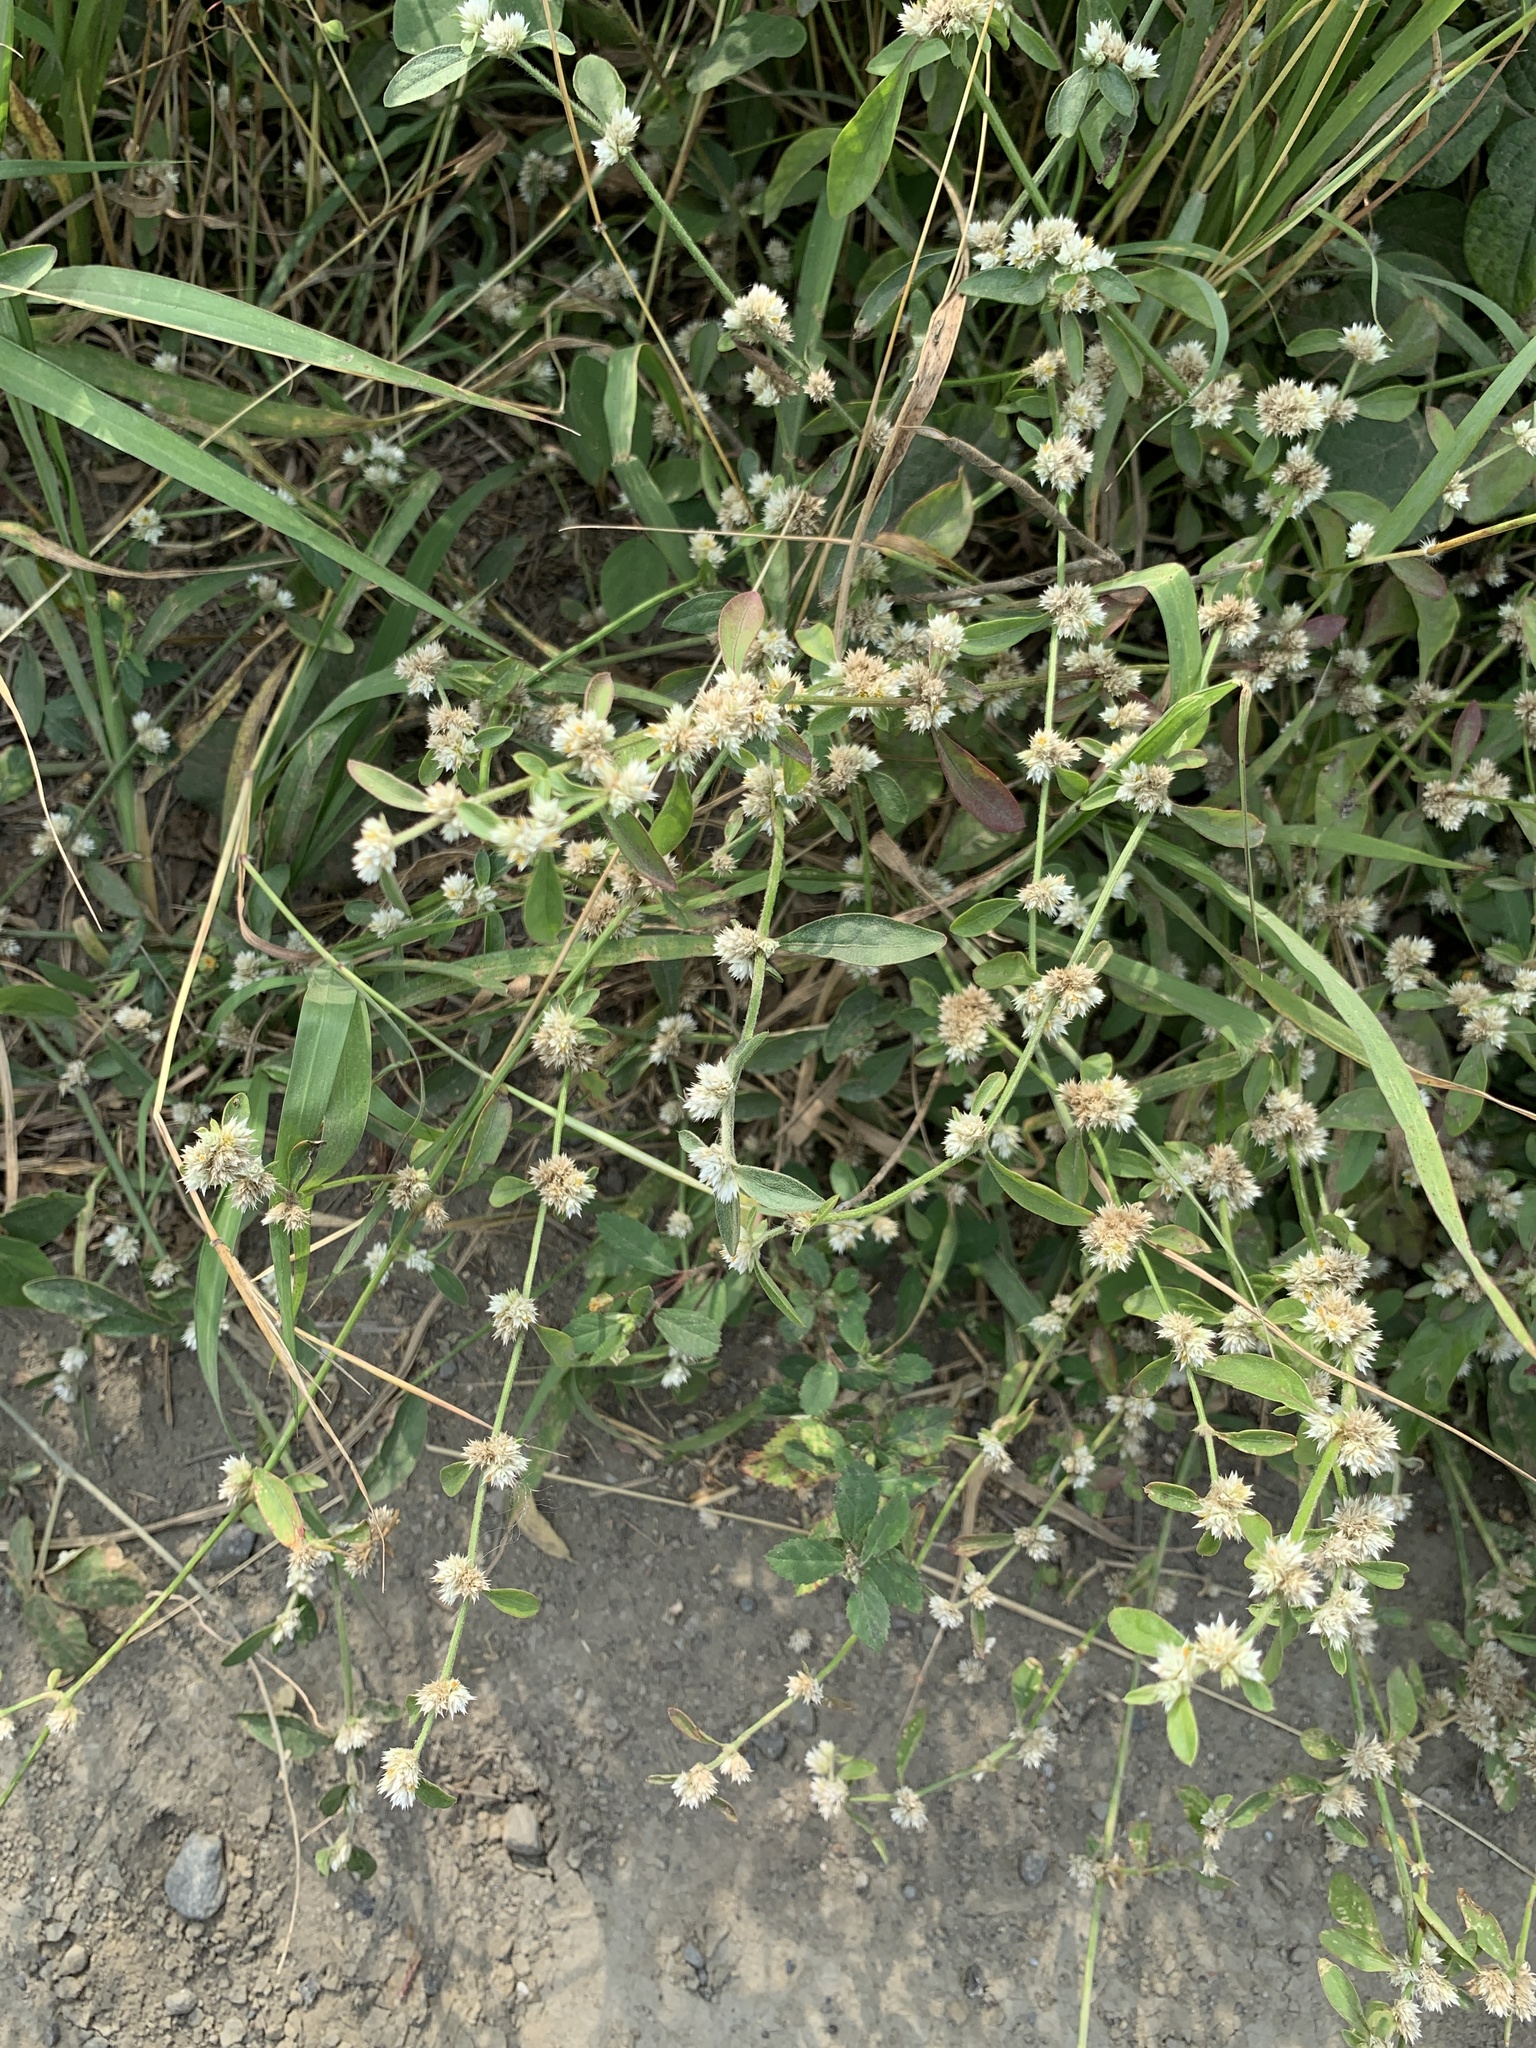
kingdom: Plantae
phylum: Tracheophyta
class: Magnoliopsida
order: Caryophyllales
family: Amaranthaceae
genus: Alternanthera
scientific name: Alternanthera bettzickiana
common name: Calico-plant
